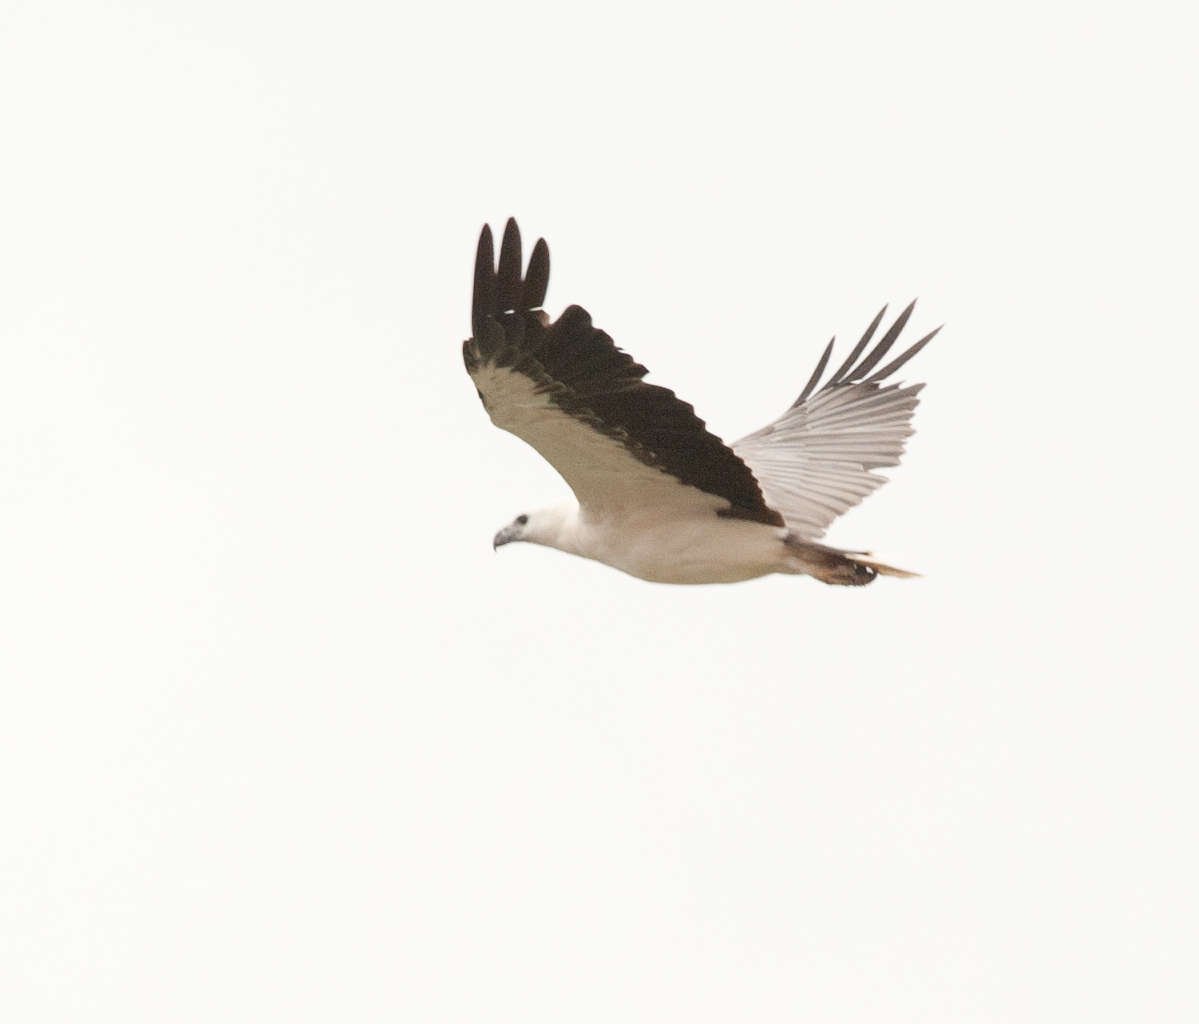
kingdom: Animalia
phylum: Chordata
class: Aves
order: Accipitriformes
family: Accipitridae
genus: Haliaeetus
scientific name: Haliaeetus leucogaster
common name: White-bellied sea eagle
